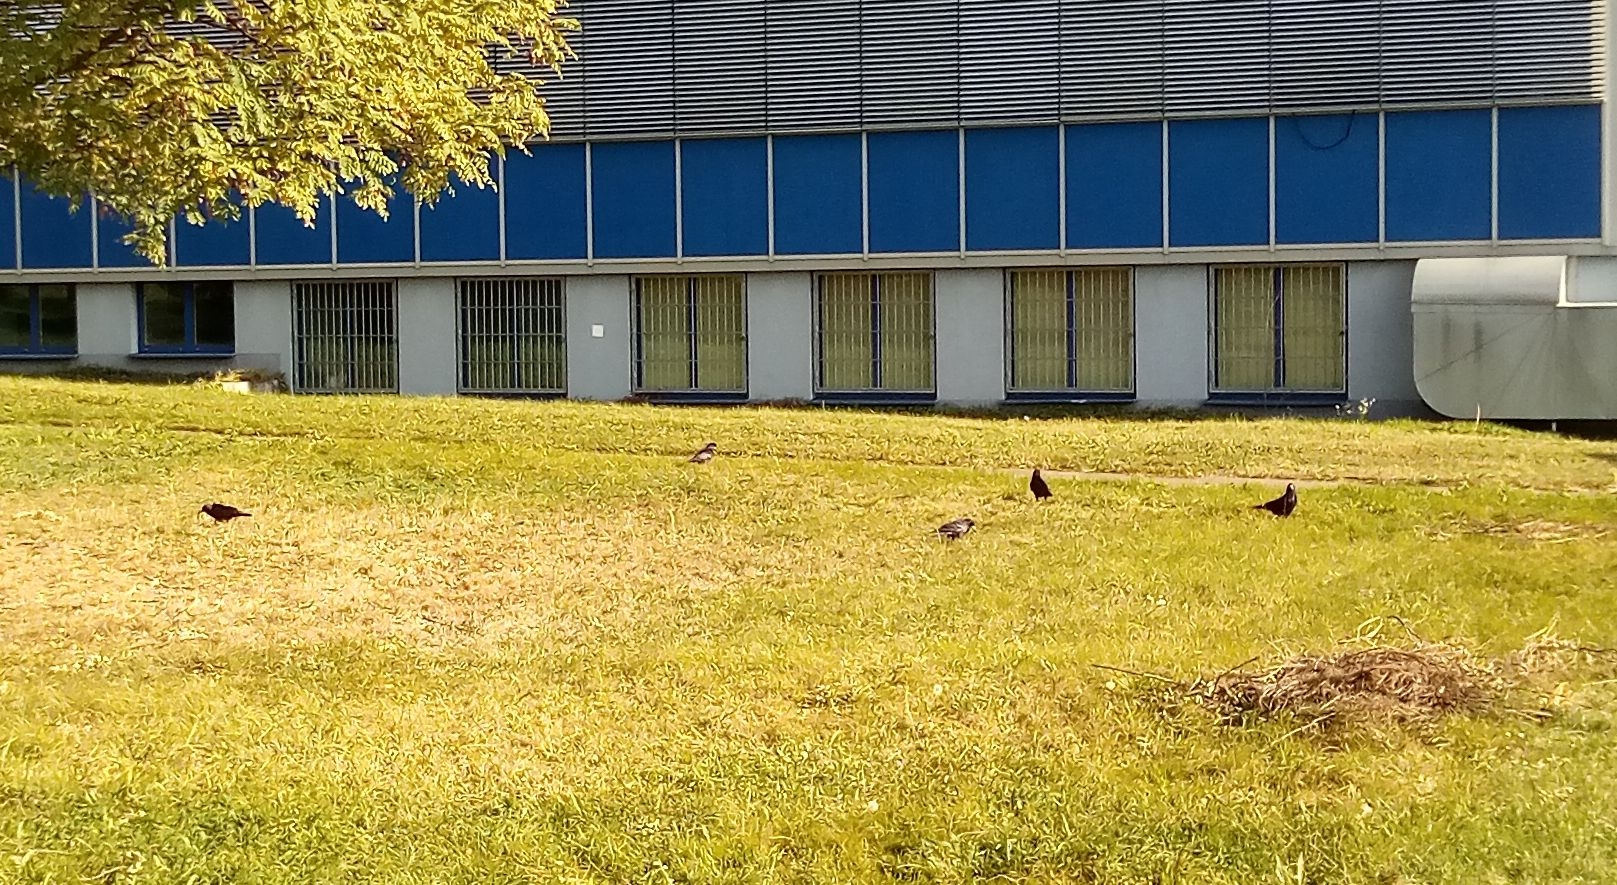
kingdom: Animalia
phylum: Chordata
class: Aves
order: Passeriformes
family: Corvidae
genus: Corvus
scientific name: Corvus frugilegus
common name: Rook
